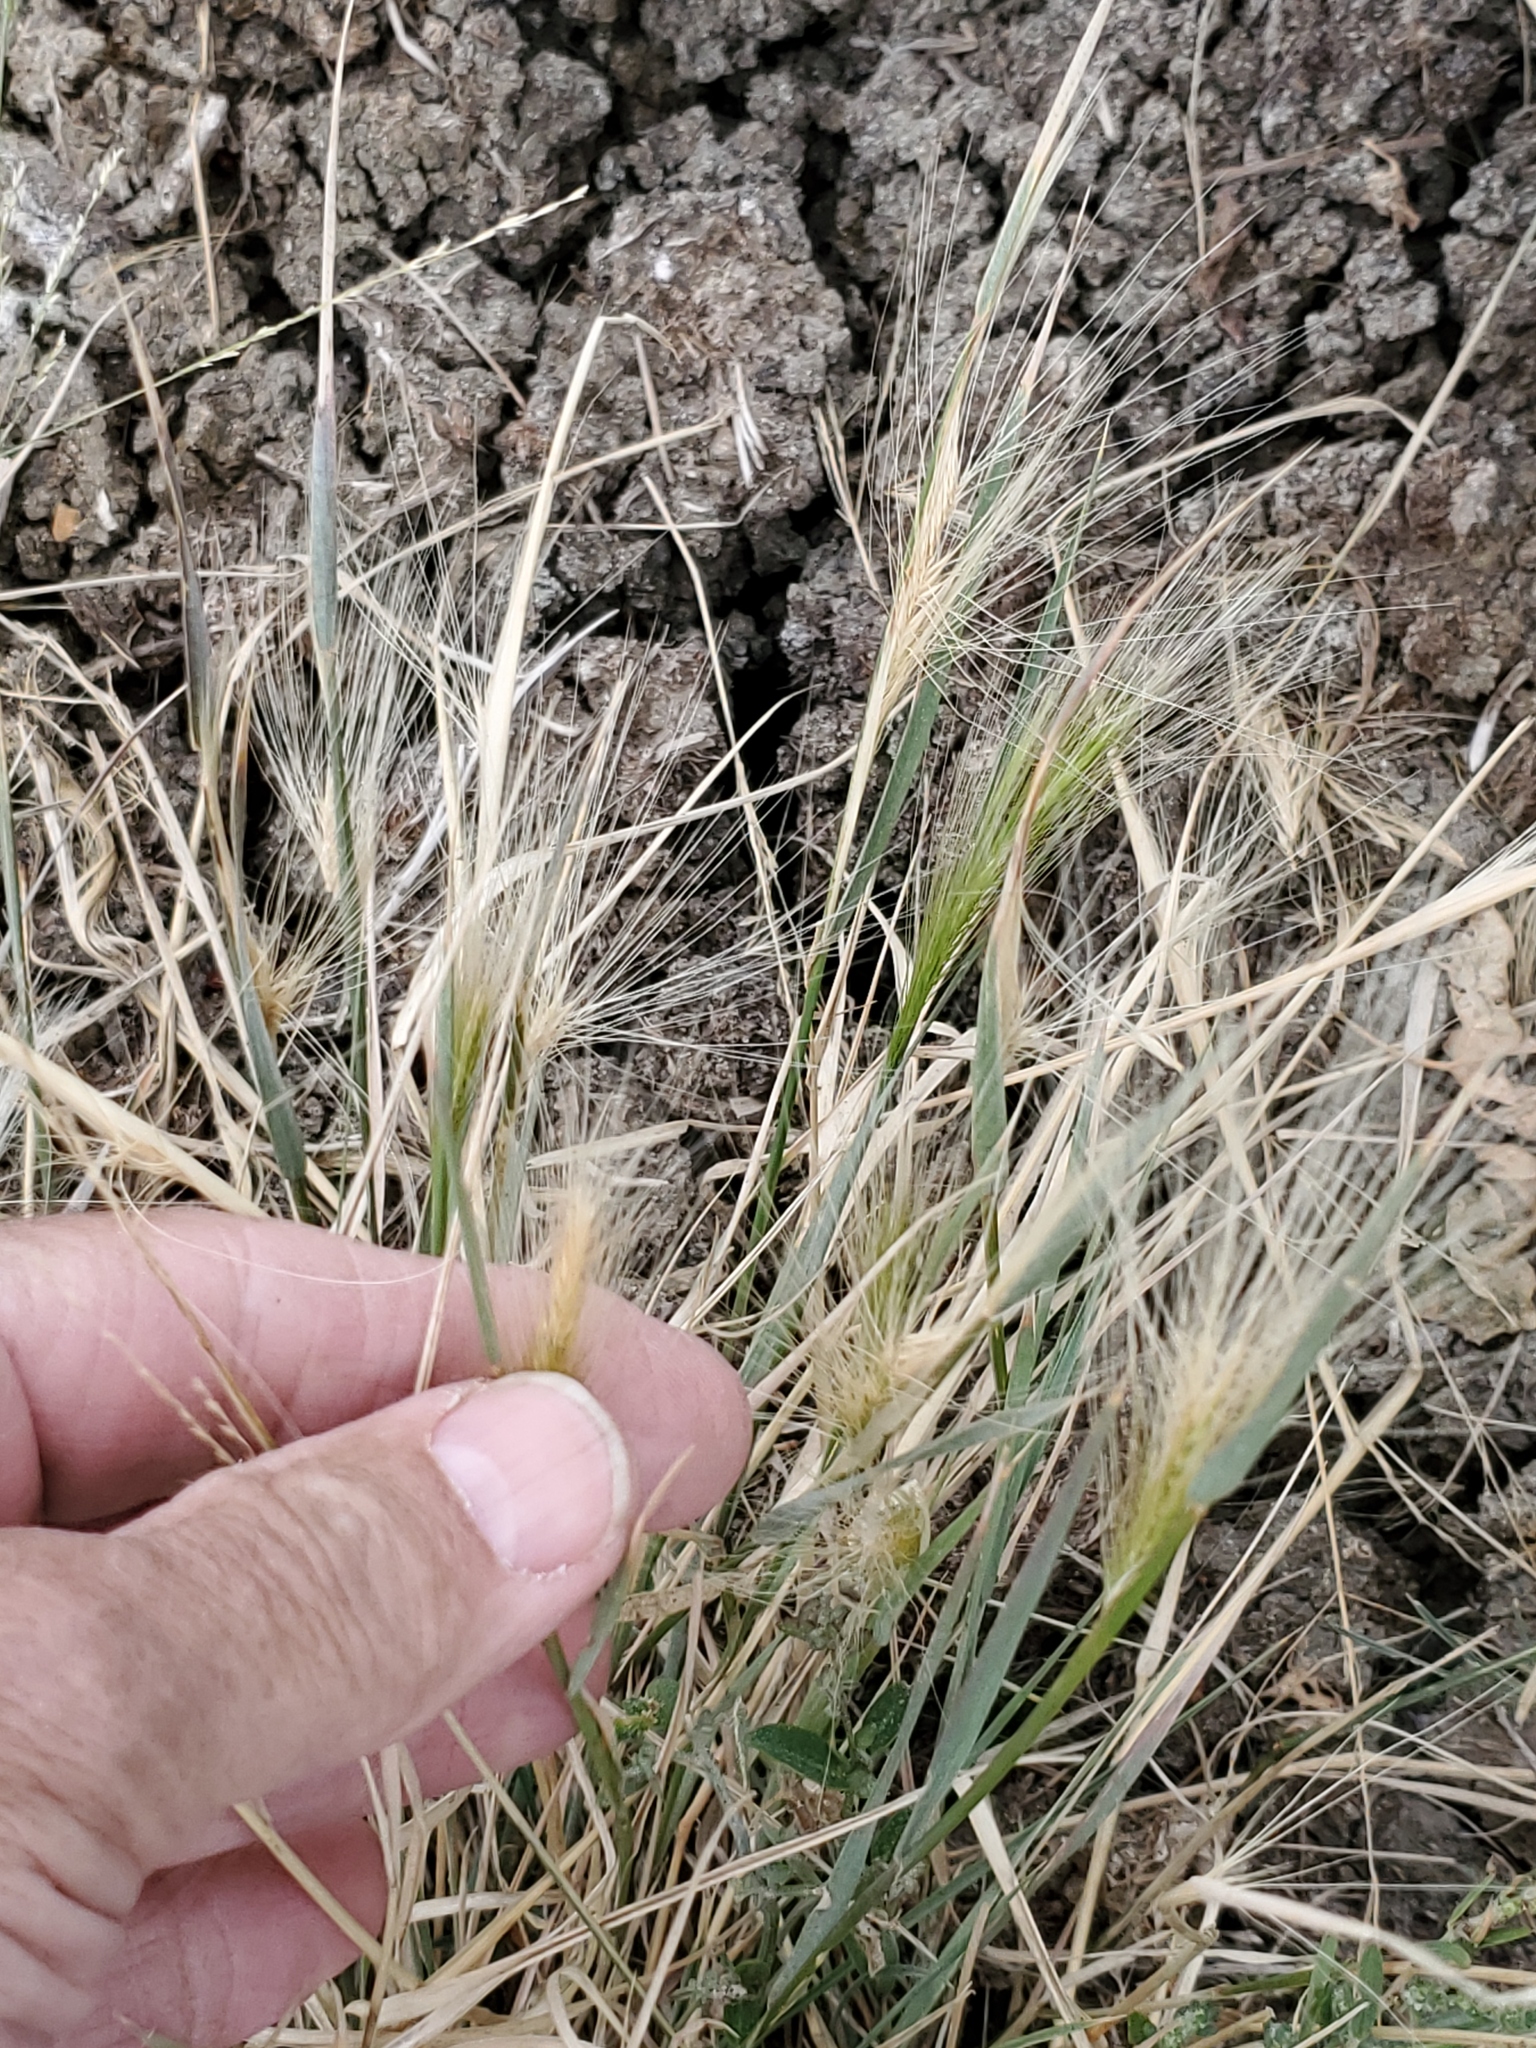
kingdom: Plantae
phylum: Tracheophyta
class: Liliopsida
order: Poales
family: Poaceae
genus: Hordeum
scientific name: Hordeum jubatum
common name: Foxtail barley
